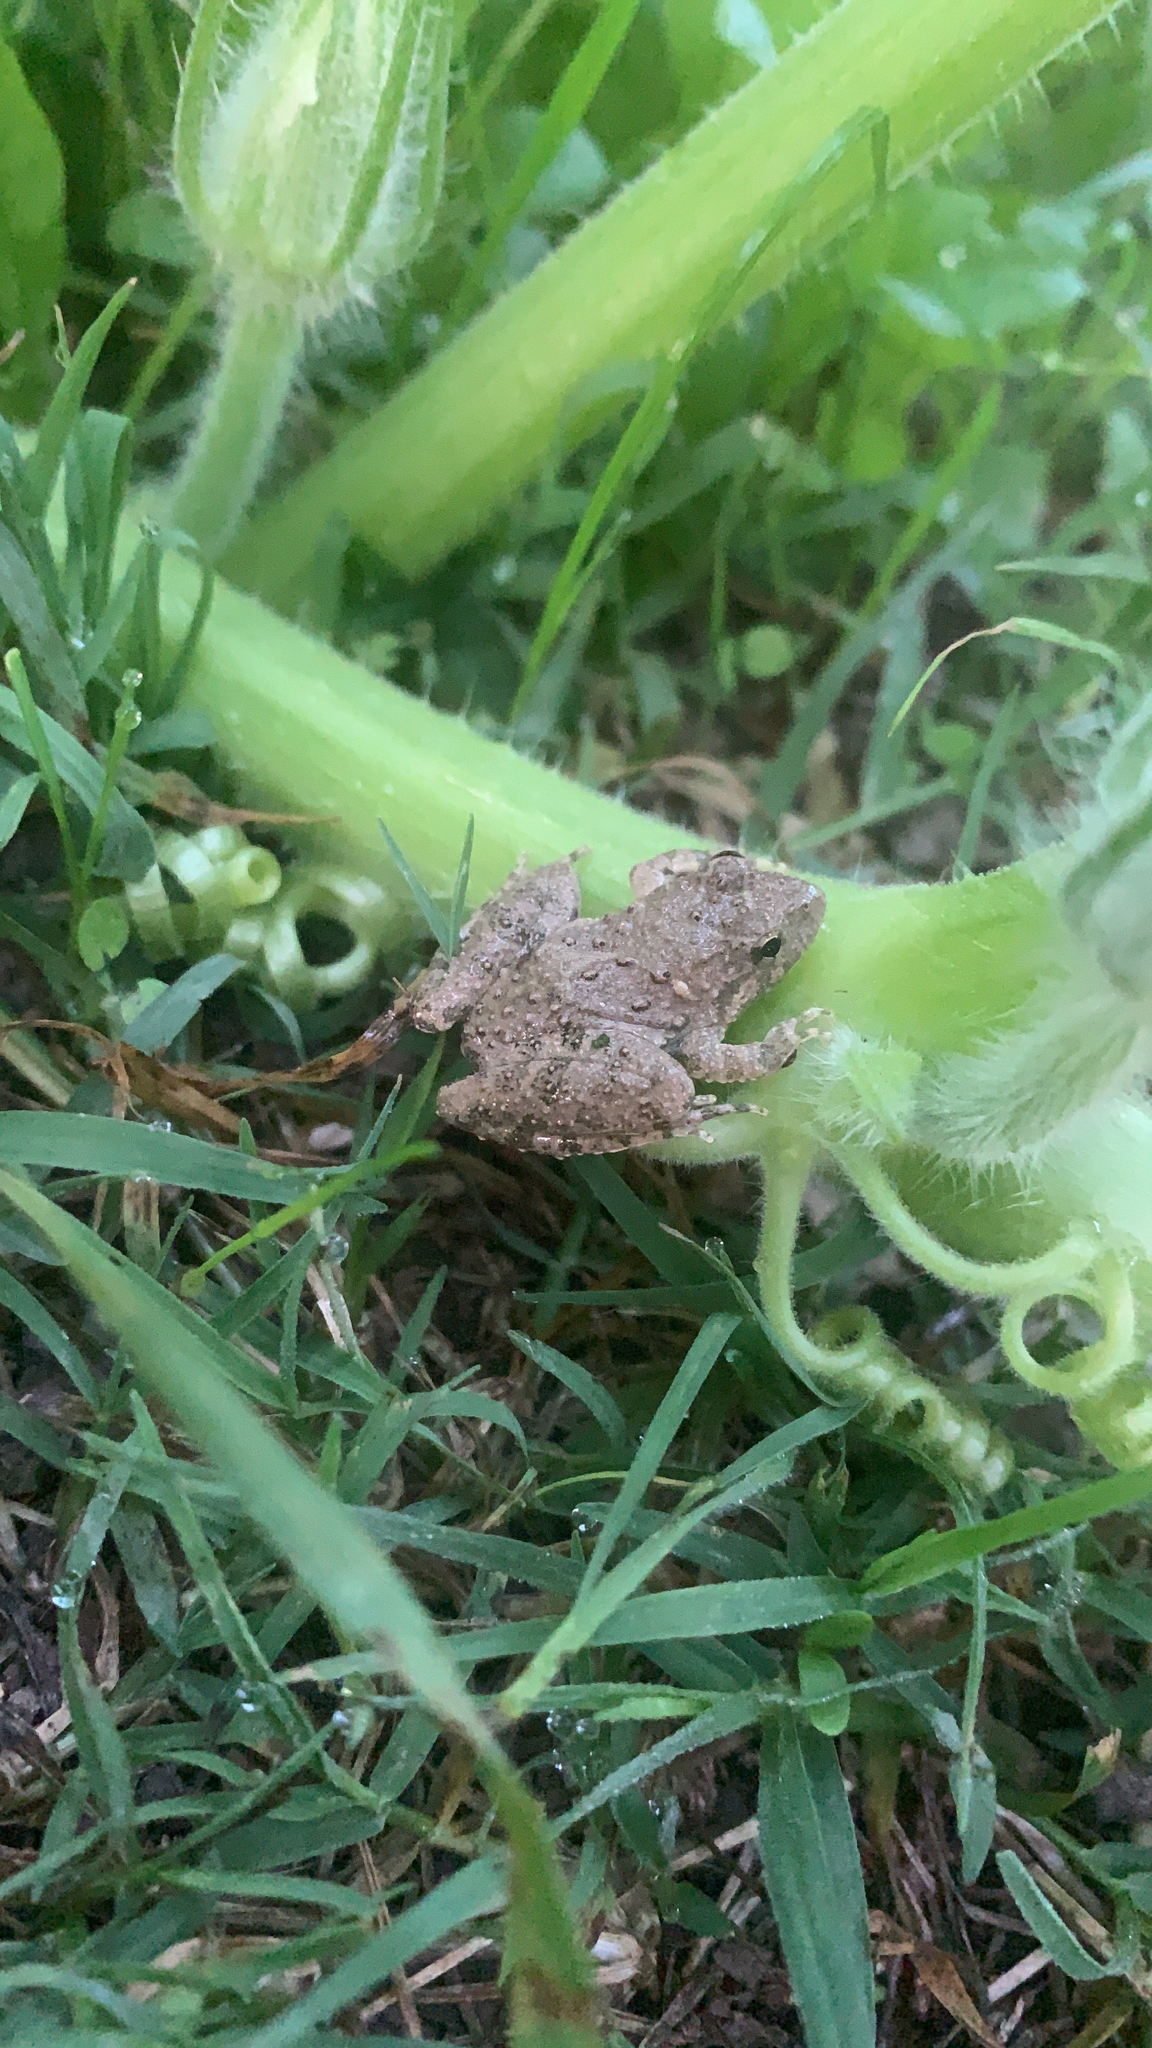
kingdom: Animalia
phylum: Chordata
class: Amphibia
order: Anura
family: Hylidae
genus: Acris
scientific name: Acris blanchardi
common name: Blanchard's cricket frog
